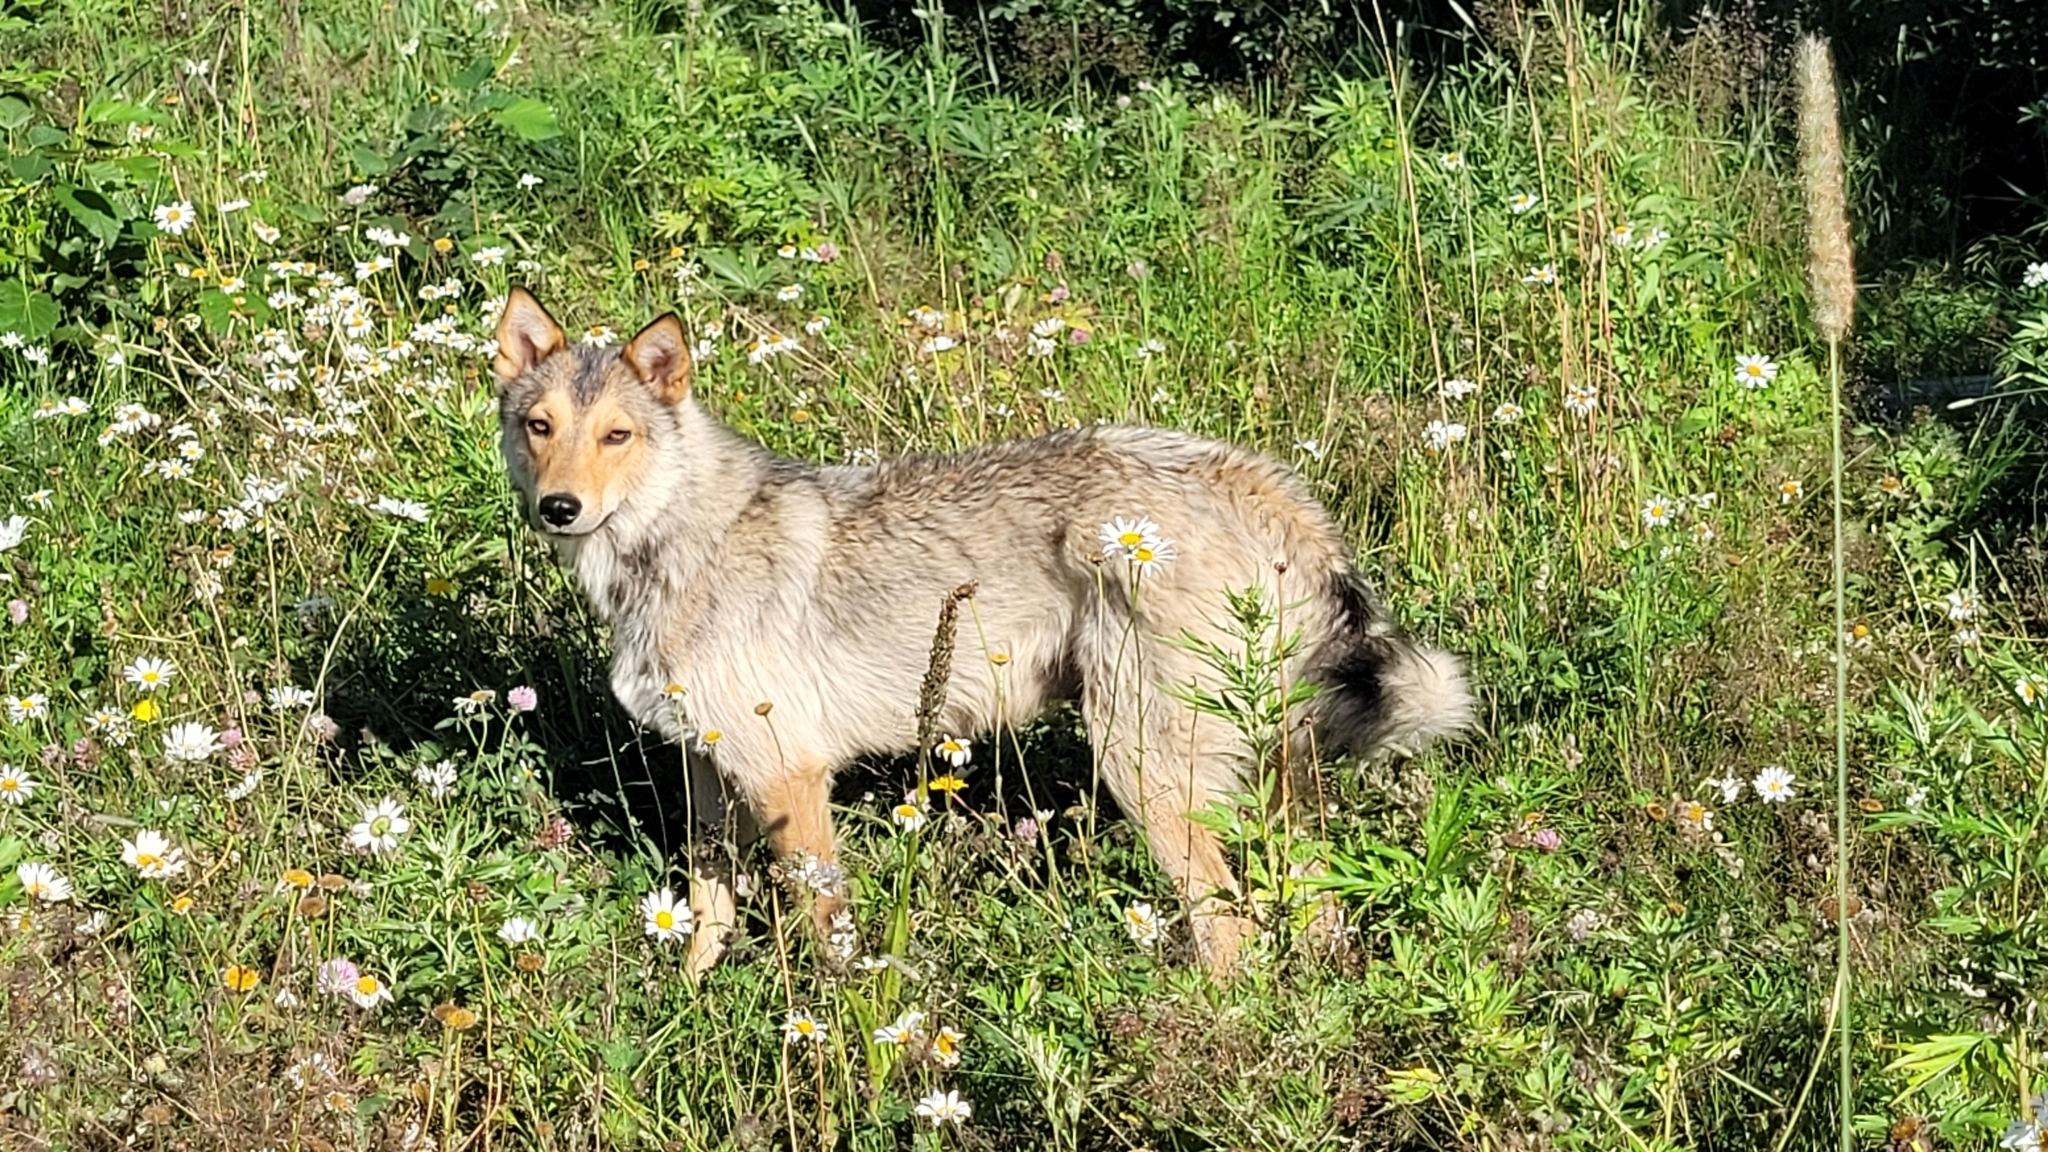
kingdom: Animalia
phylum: Chordata
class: Mammalia
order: Carnivora
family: Canidae
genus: Canis
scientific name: Canis lupus
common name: Gray wolf
